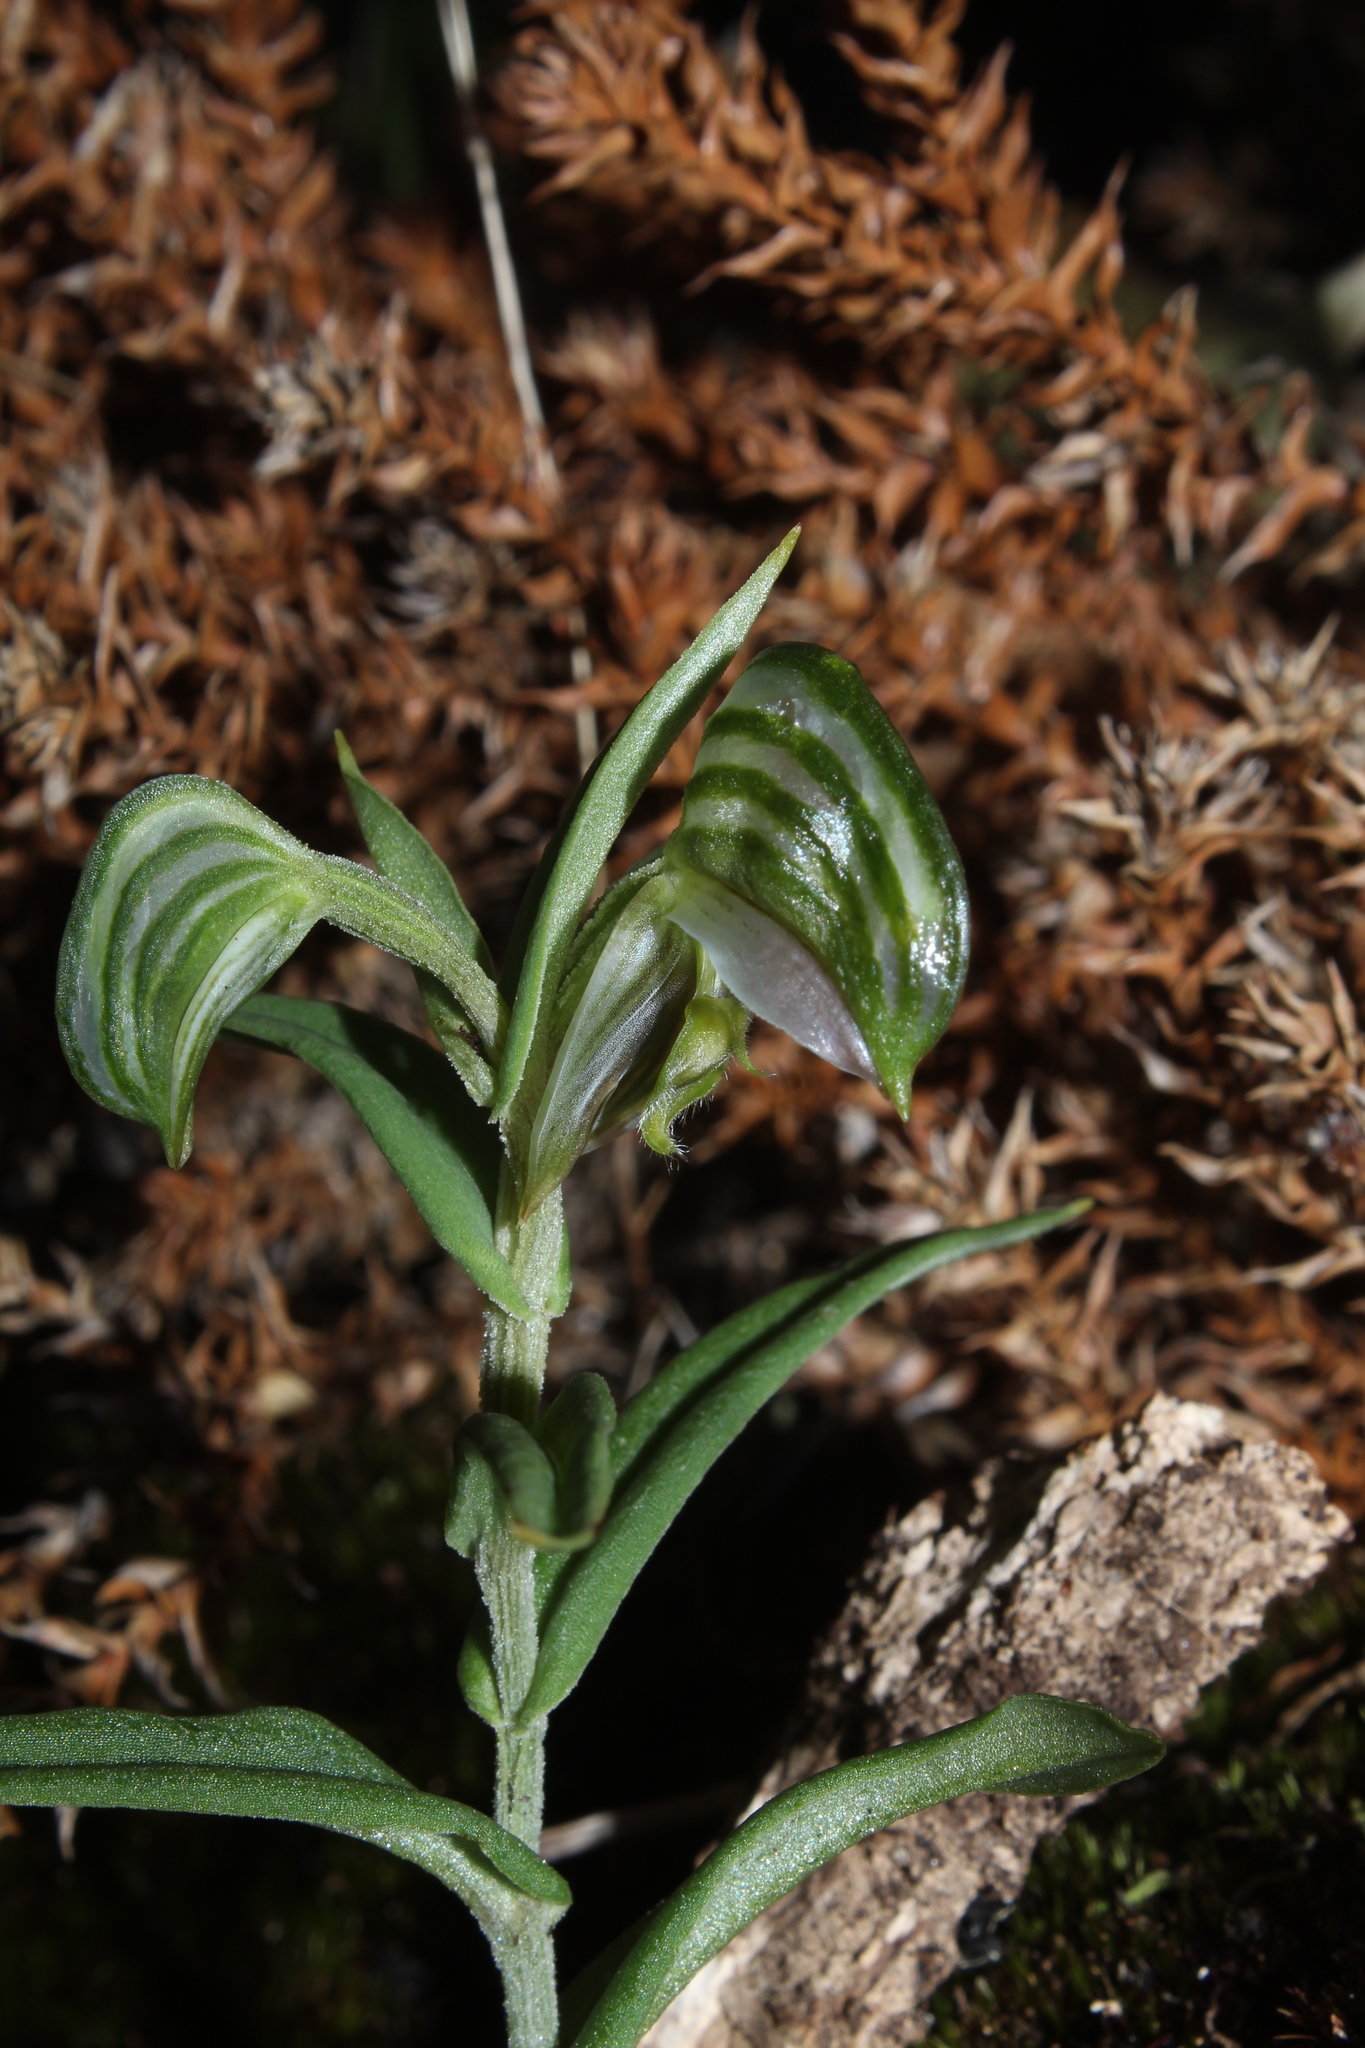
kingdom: Plantae
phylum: Tracheophyta
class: Liliopsida
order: Asparagales
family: Orchidaceae
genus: Pterostylis
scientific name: Pterostylis vittata
